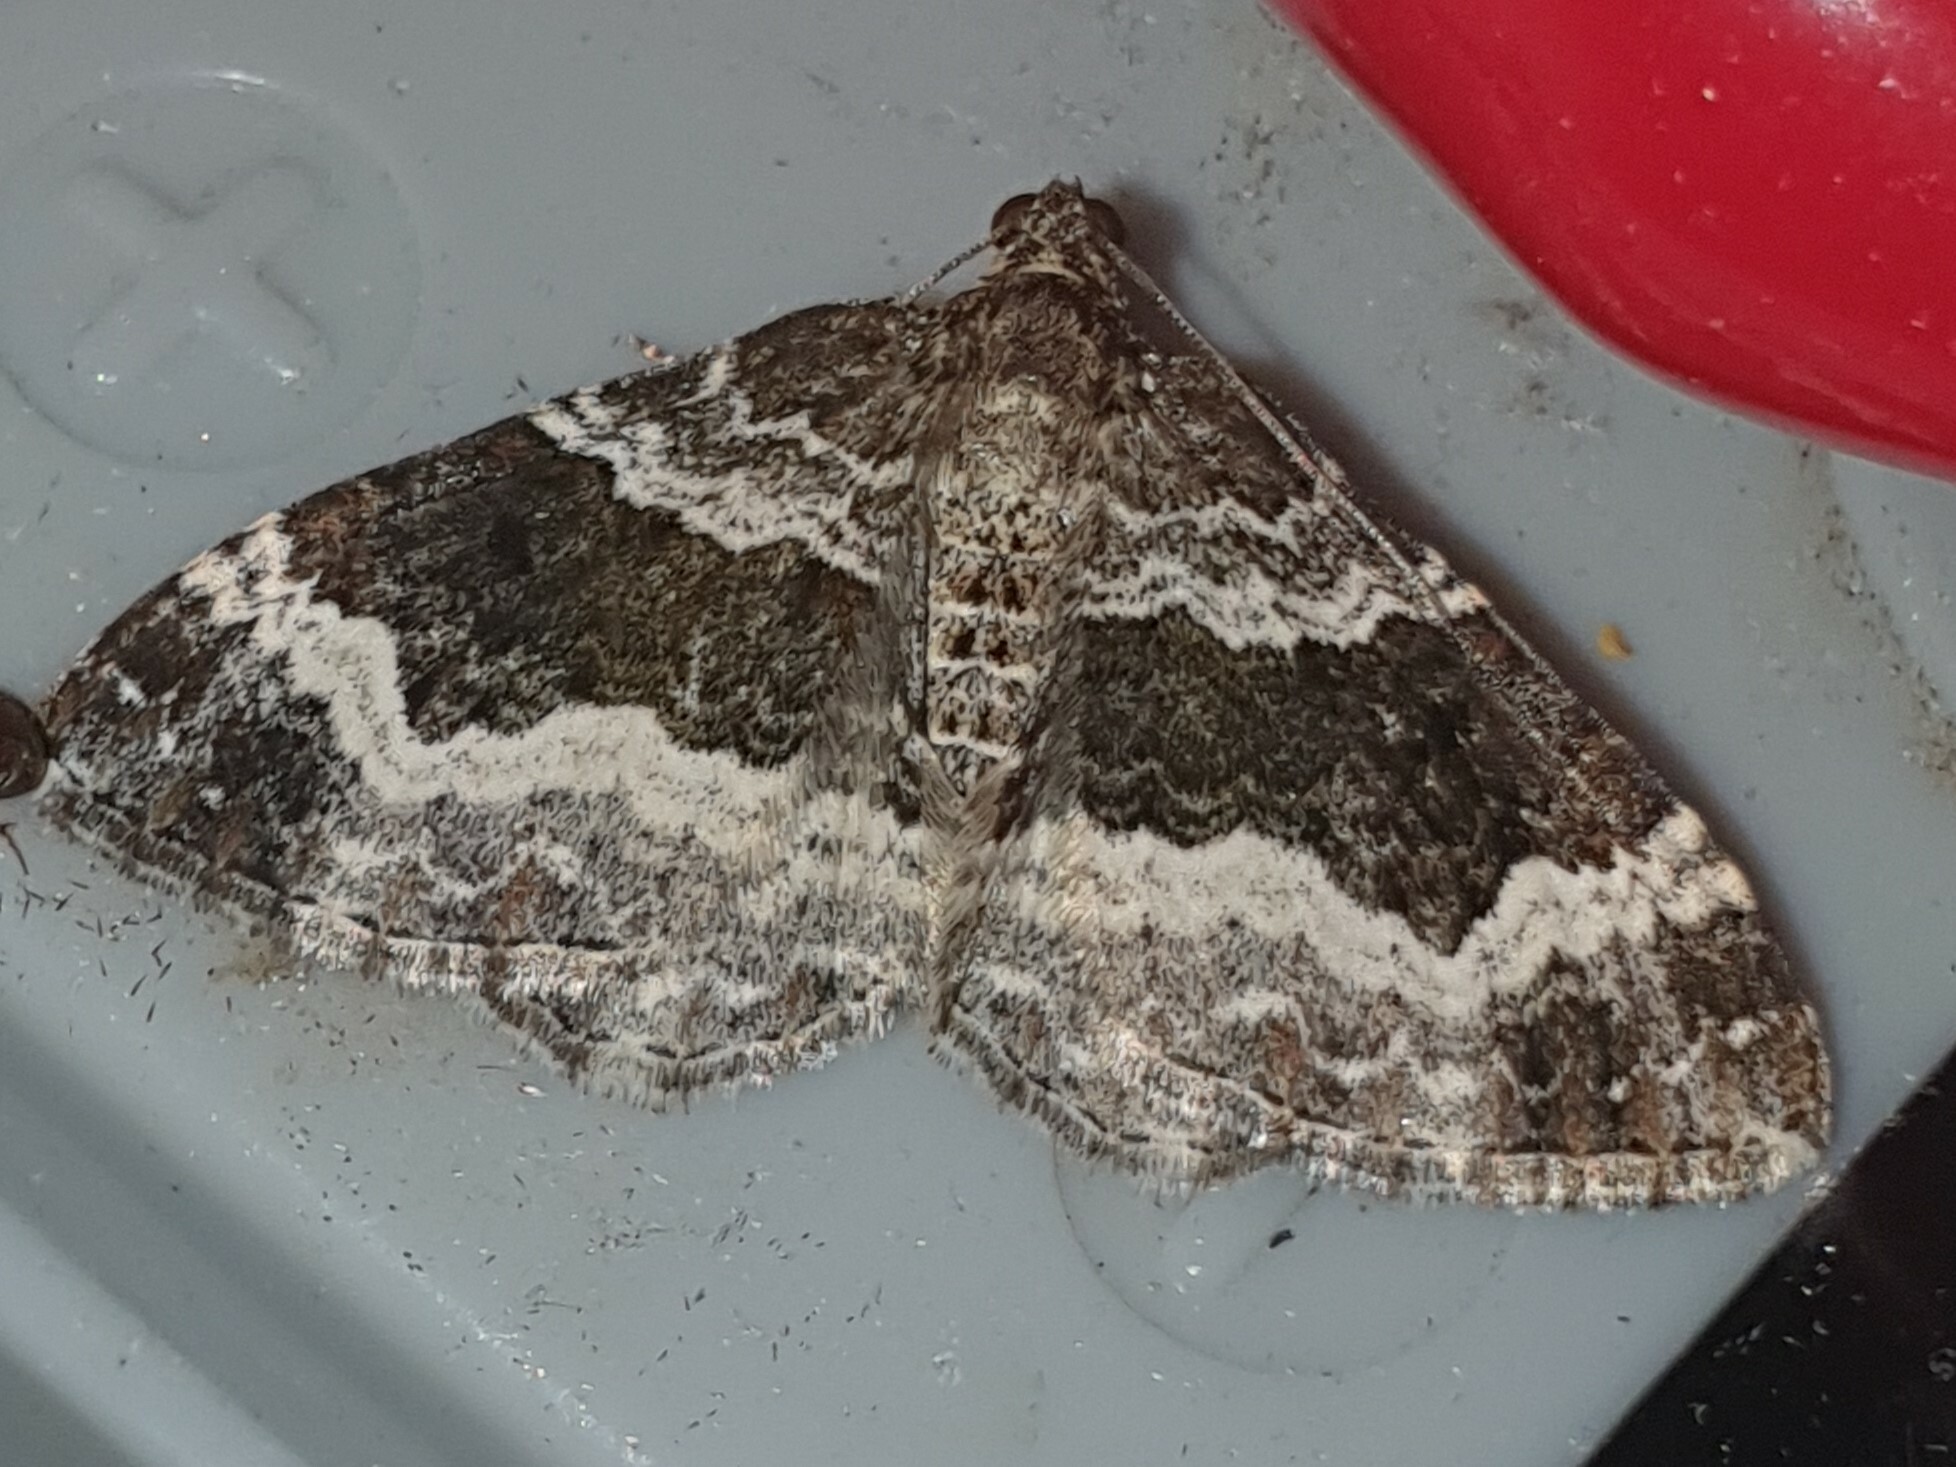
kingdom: Animalia
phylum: Arthropoda
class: Insecta
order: Lepidoptera
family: Geometridae
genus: Epirrhoe
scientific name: Epirrhoe alternata
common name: Common carpet
